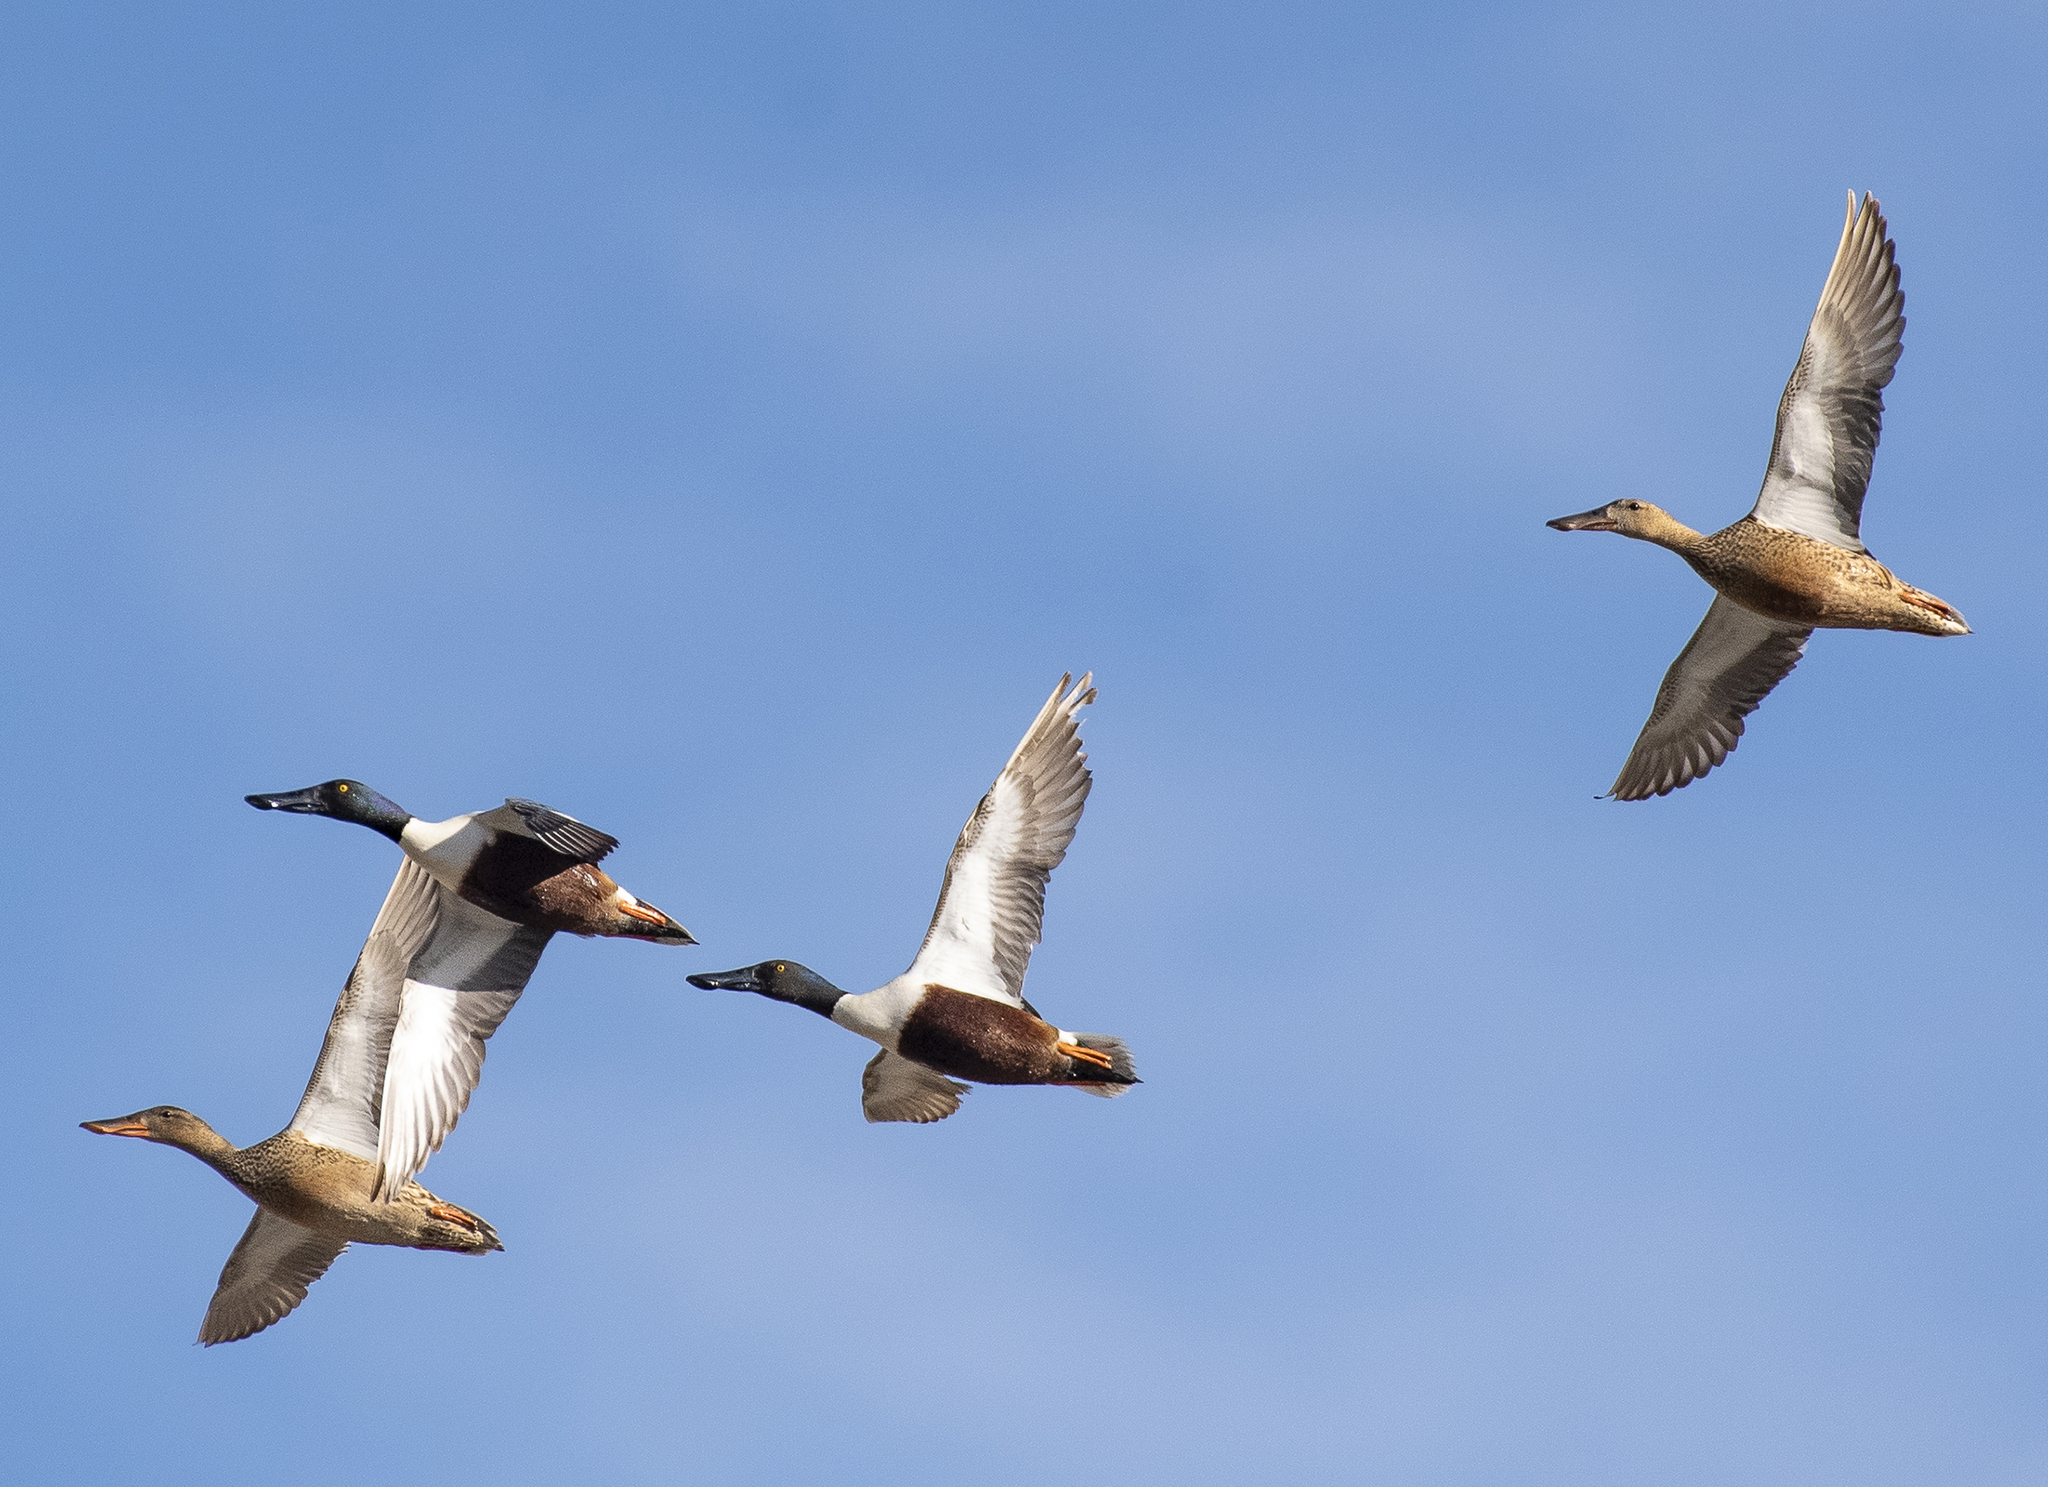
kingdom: Animalia
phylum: Chordata
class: Aves
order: Anseriformes
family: Anatidae
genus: Spatula
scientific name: Spatula clypeata
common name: Northern shoveler
